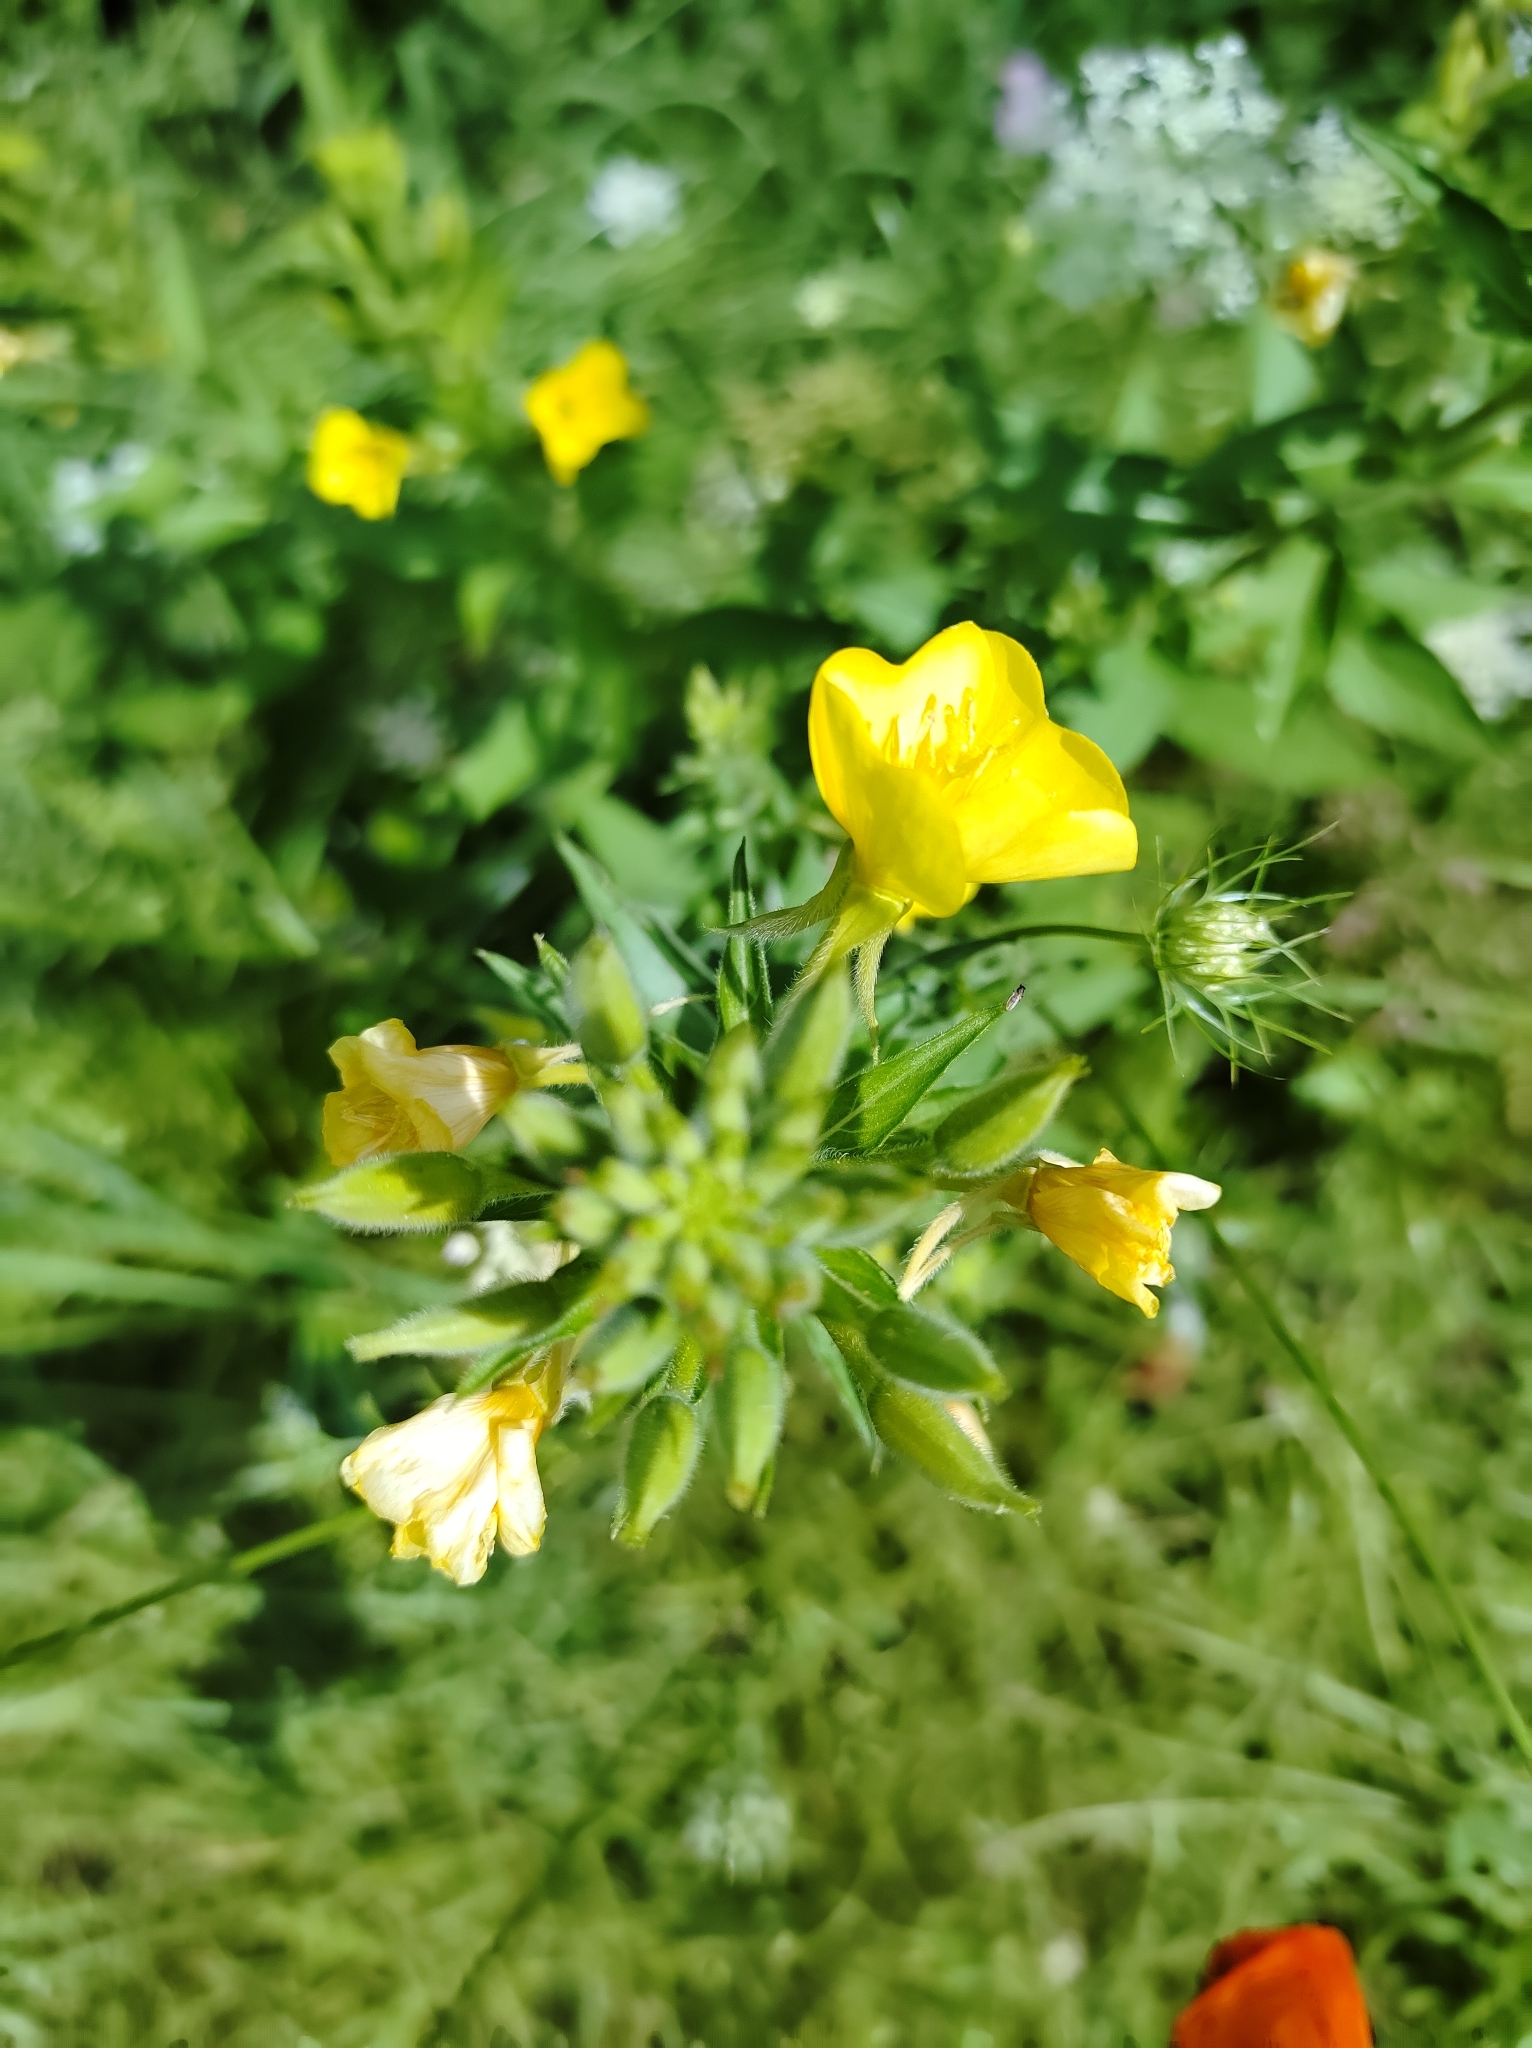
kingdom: Plantae
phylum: Tracheophyta
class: Magnoliopsida
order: Myrtales
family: Onagraceae
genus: Oenothera
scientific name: Oenothera biennis
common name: Common evening-primrose
